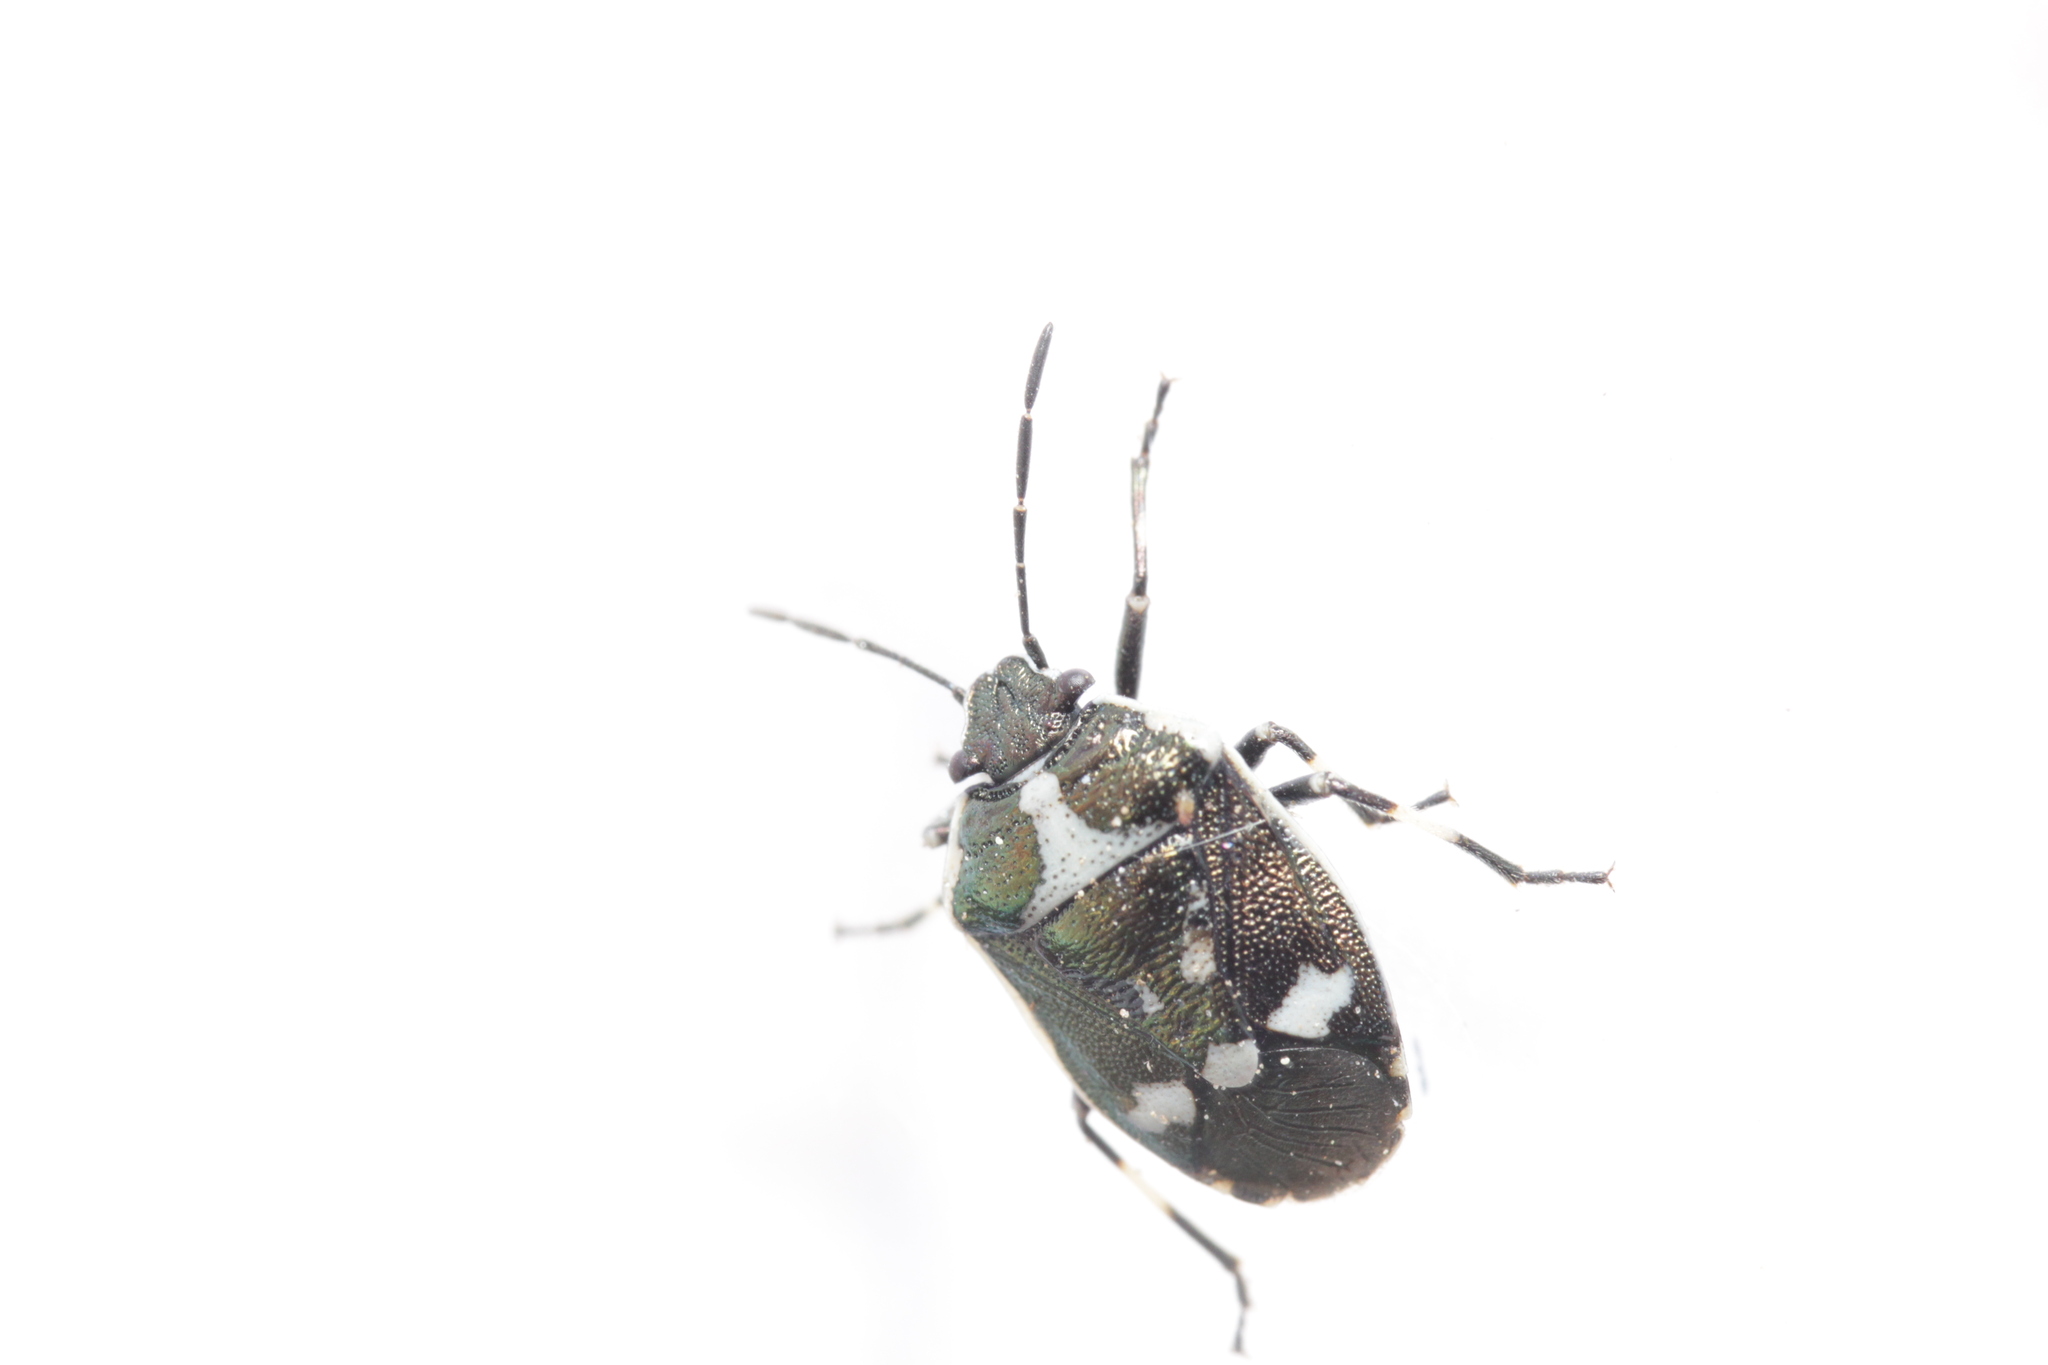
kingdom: Animalia
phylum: Arthropoda
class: Insecta
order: Hemiptera
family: Pentatomidae
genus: Eurydema
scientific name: Eurydema oleracea
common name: Cabbage bug
